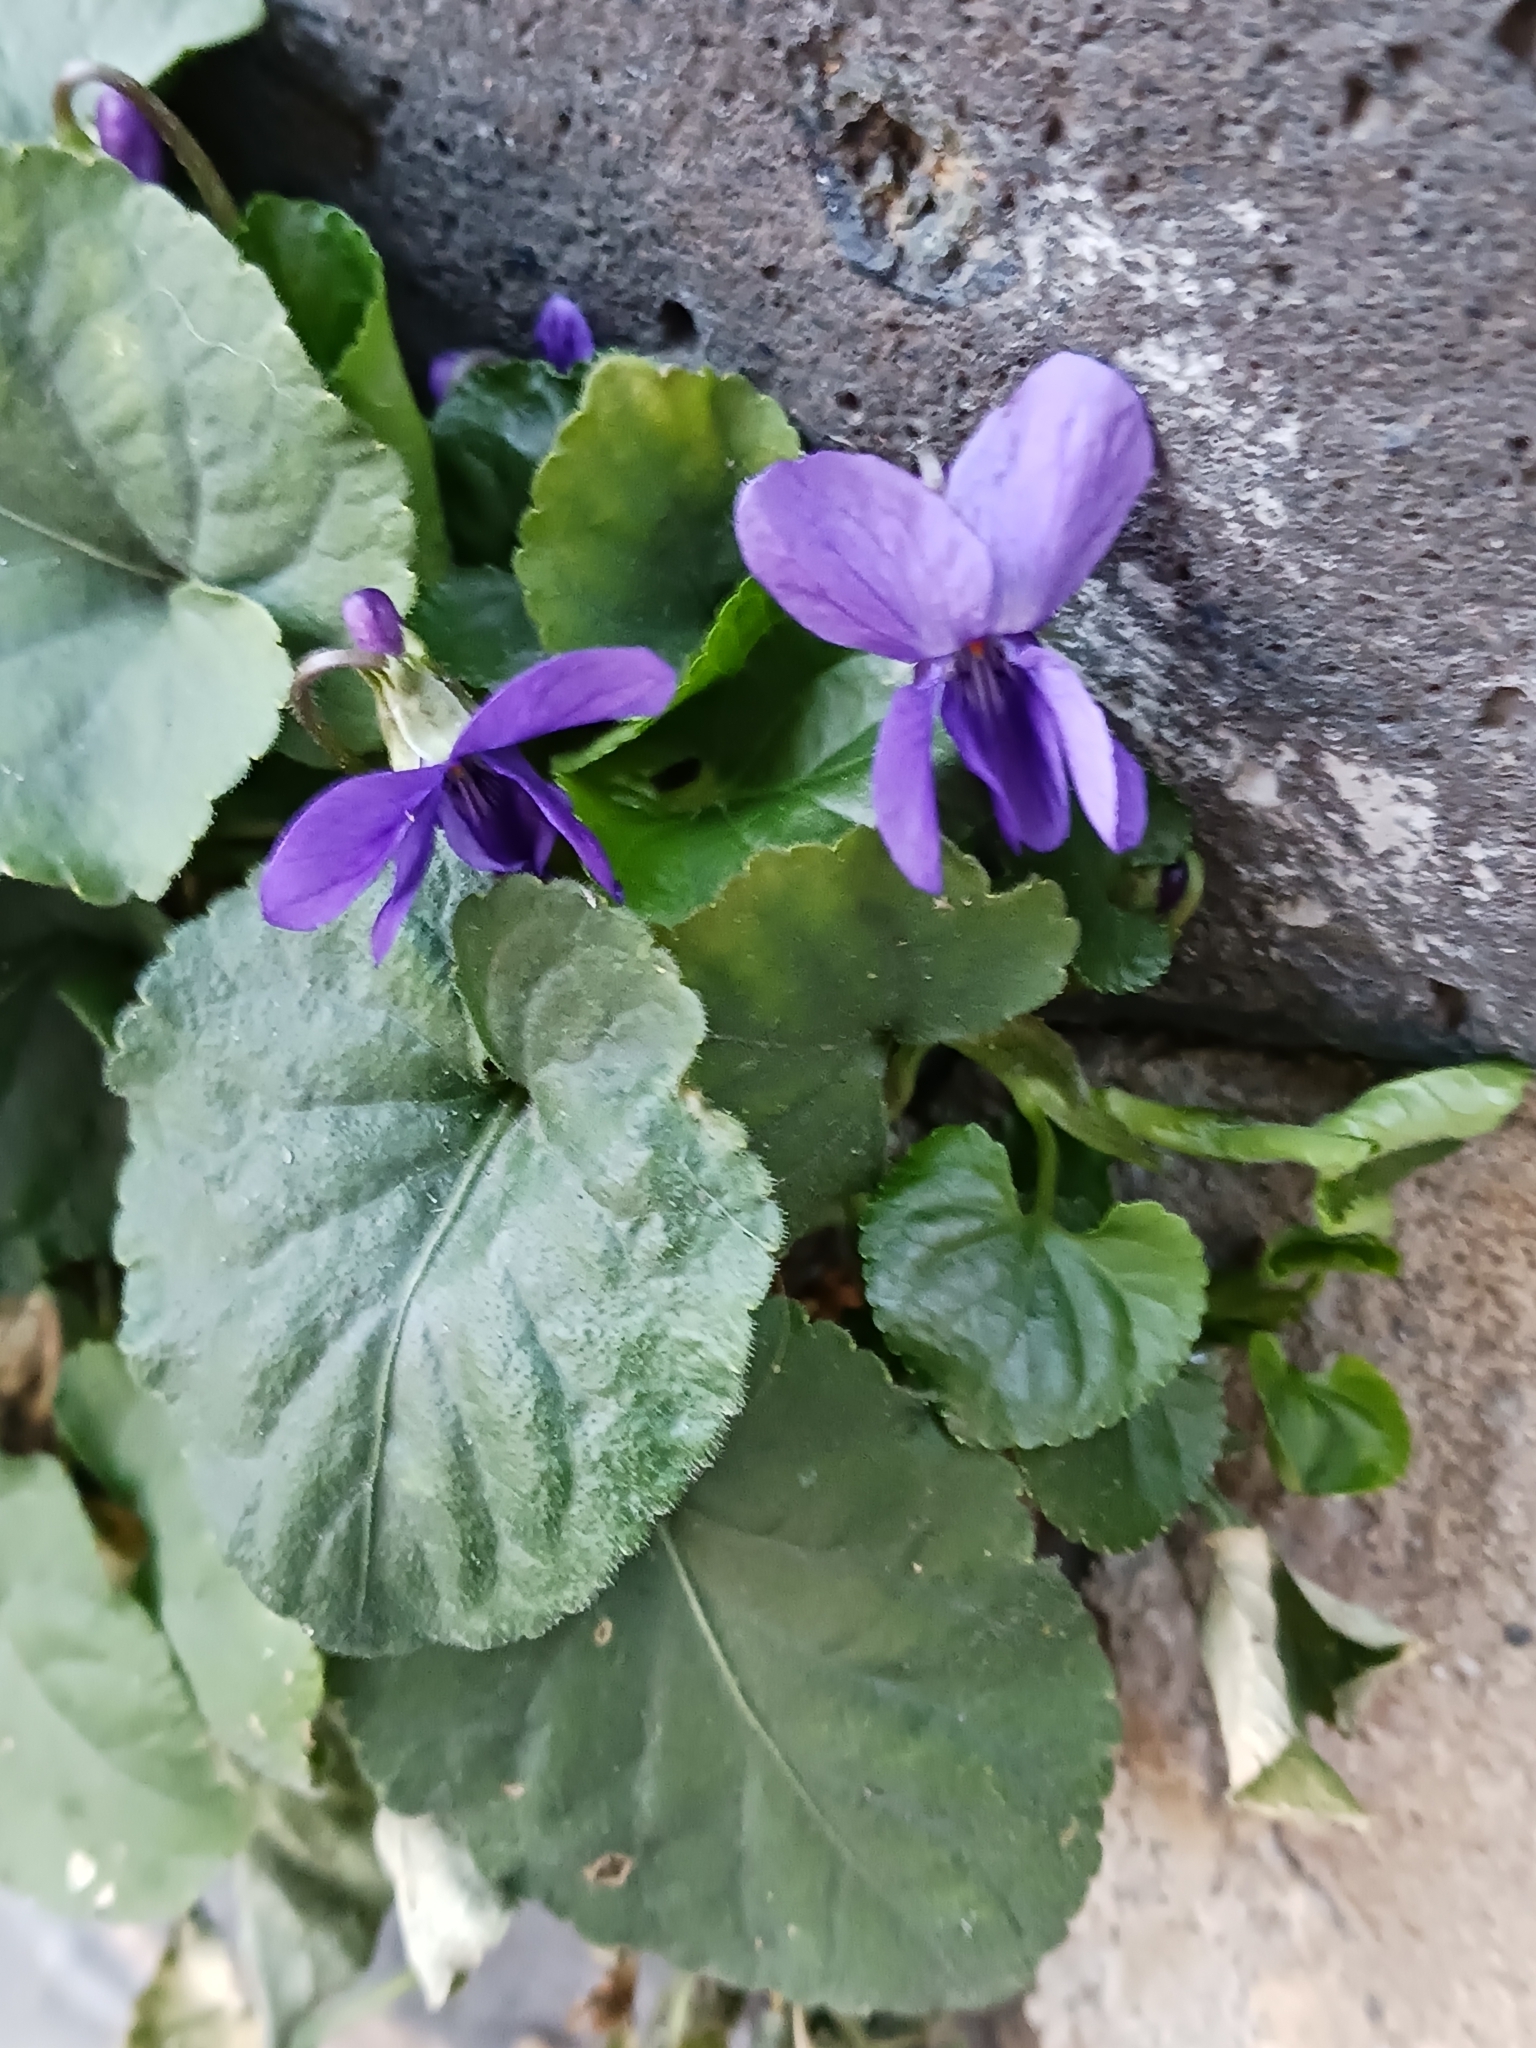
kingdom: Plantae
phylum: Tracheophyta
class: Magnoliopsida
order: Malpighiales
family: Violaceae
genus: Viola
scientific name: Viola odorata
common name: Sweet violet
